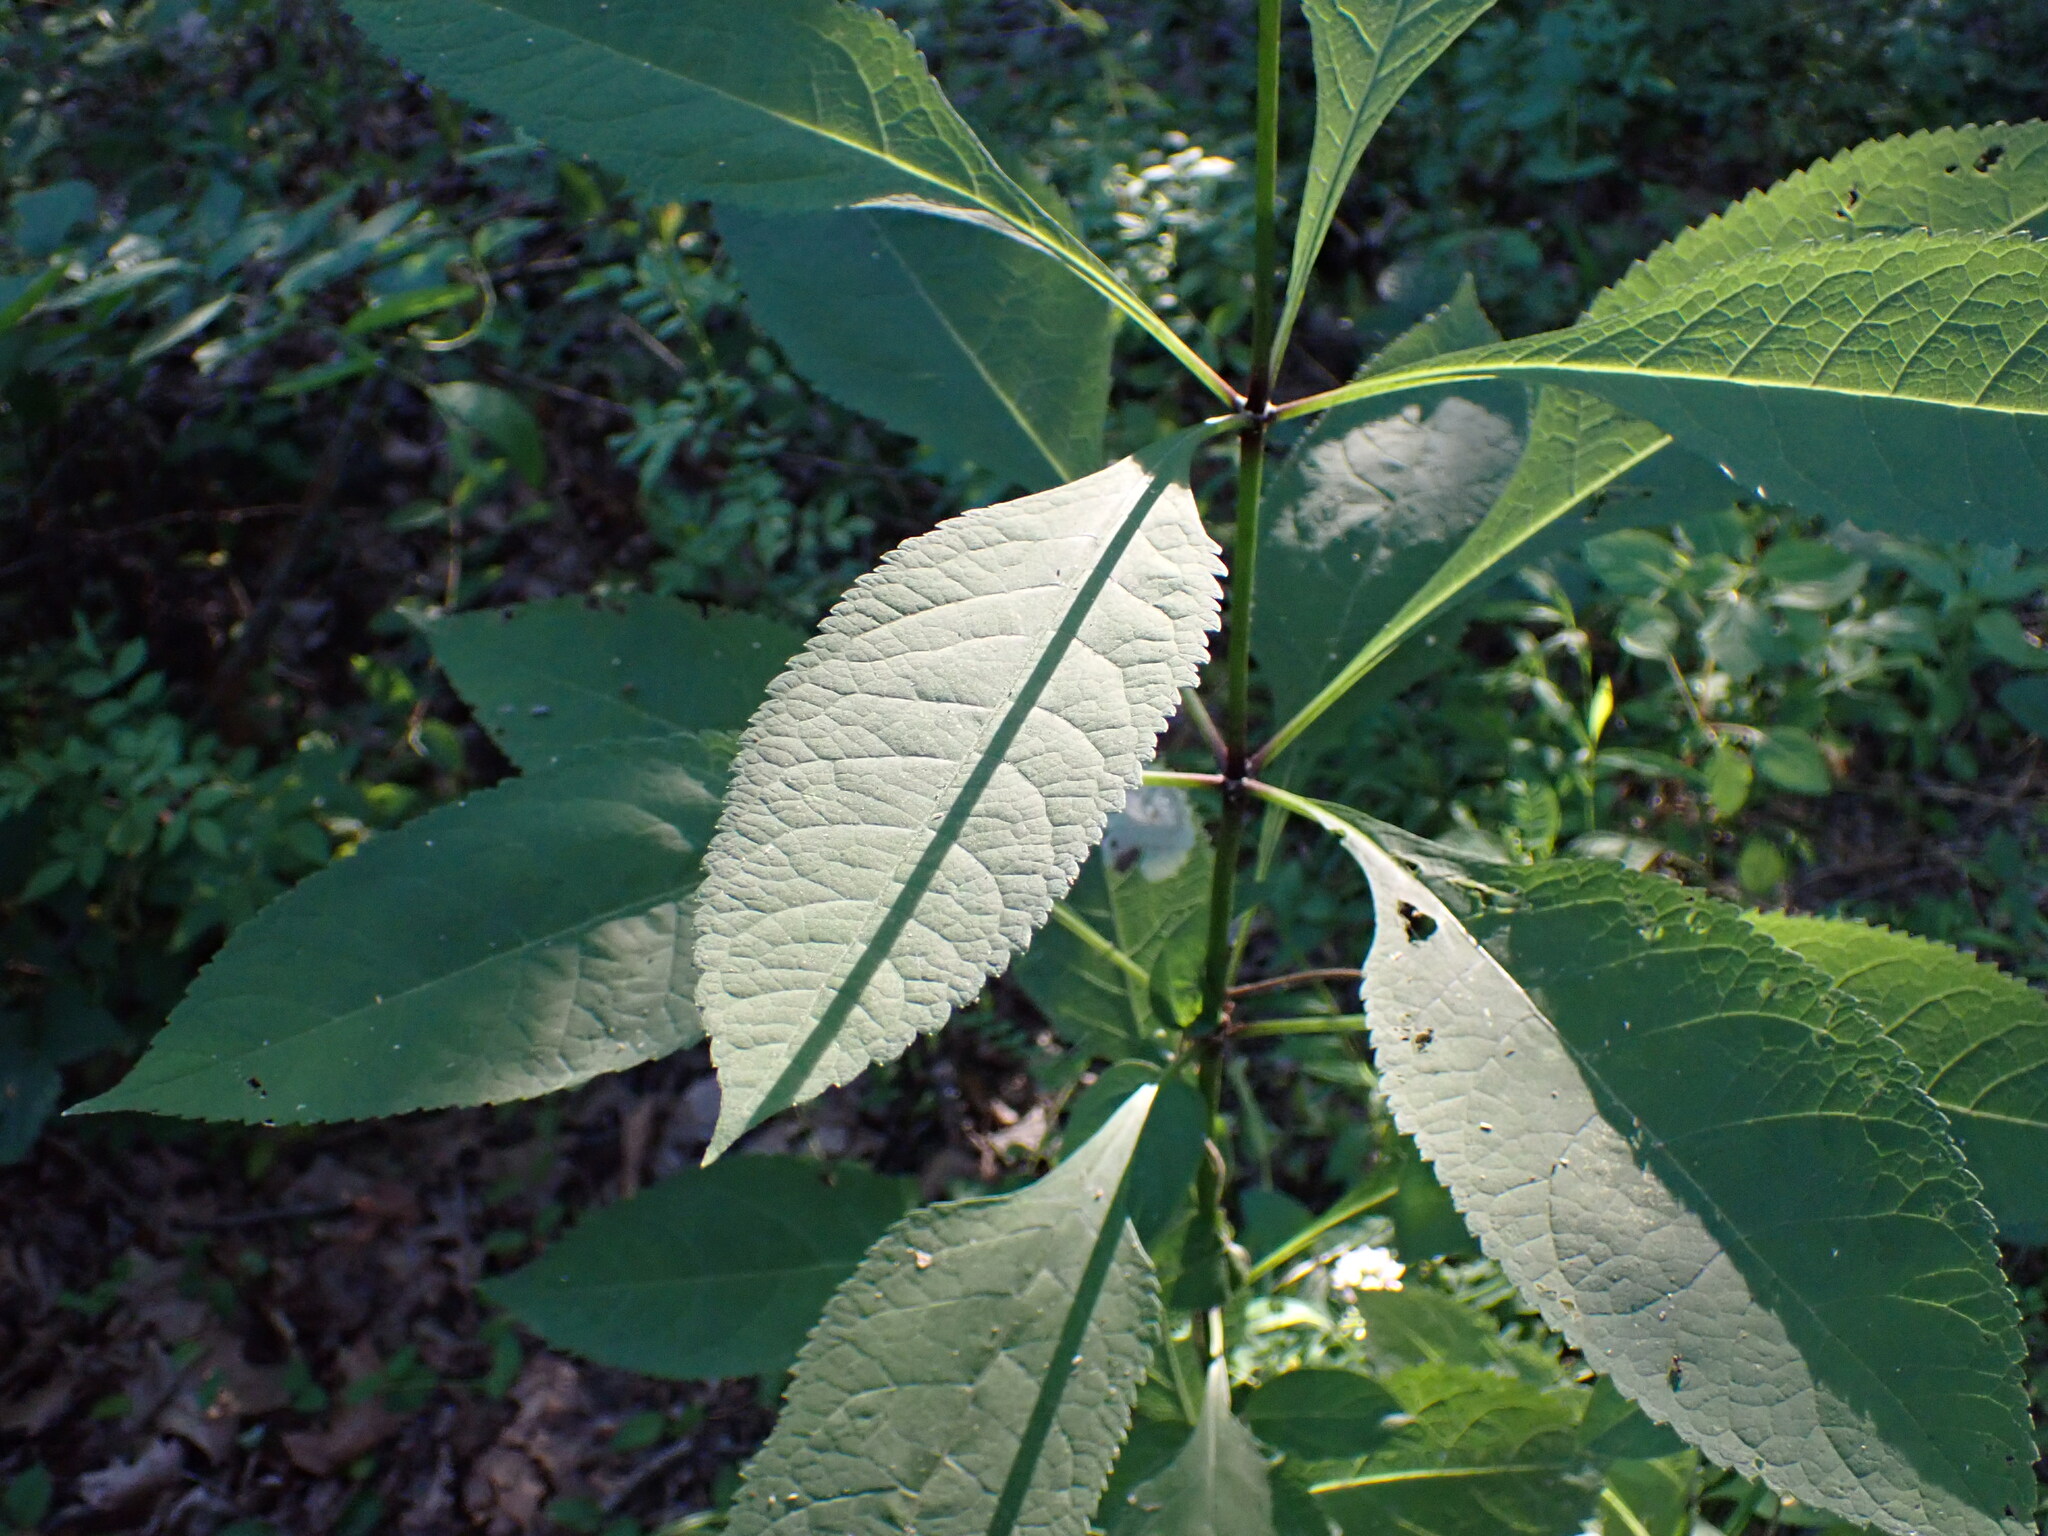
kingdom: Plantae
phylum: Tracheophyta
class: Magnoliopsida
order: Asterales
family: Asteraceae
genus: Eutrochium
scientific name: Eutrochium purpureum
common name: Gravelroot
